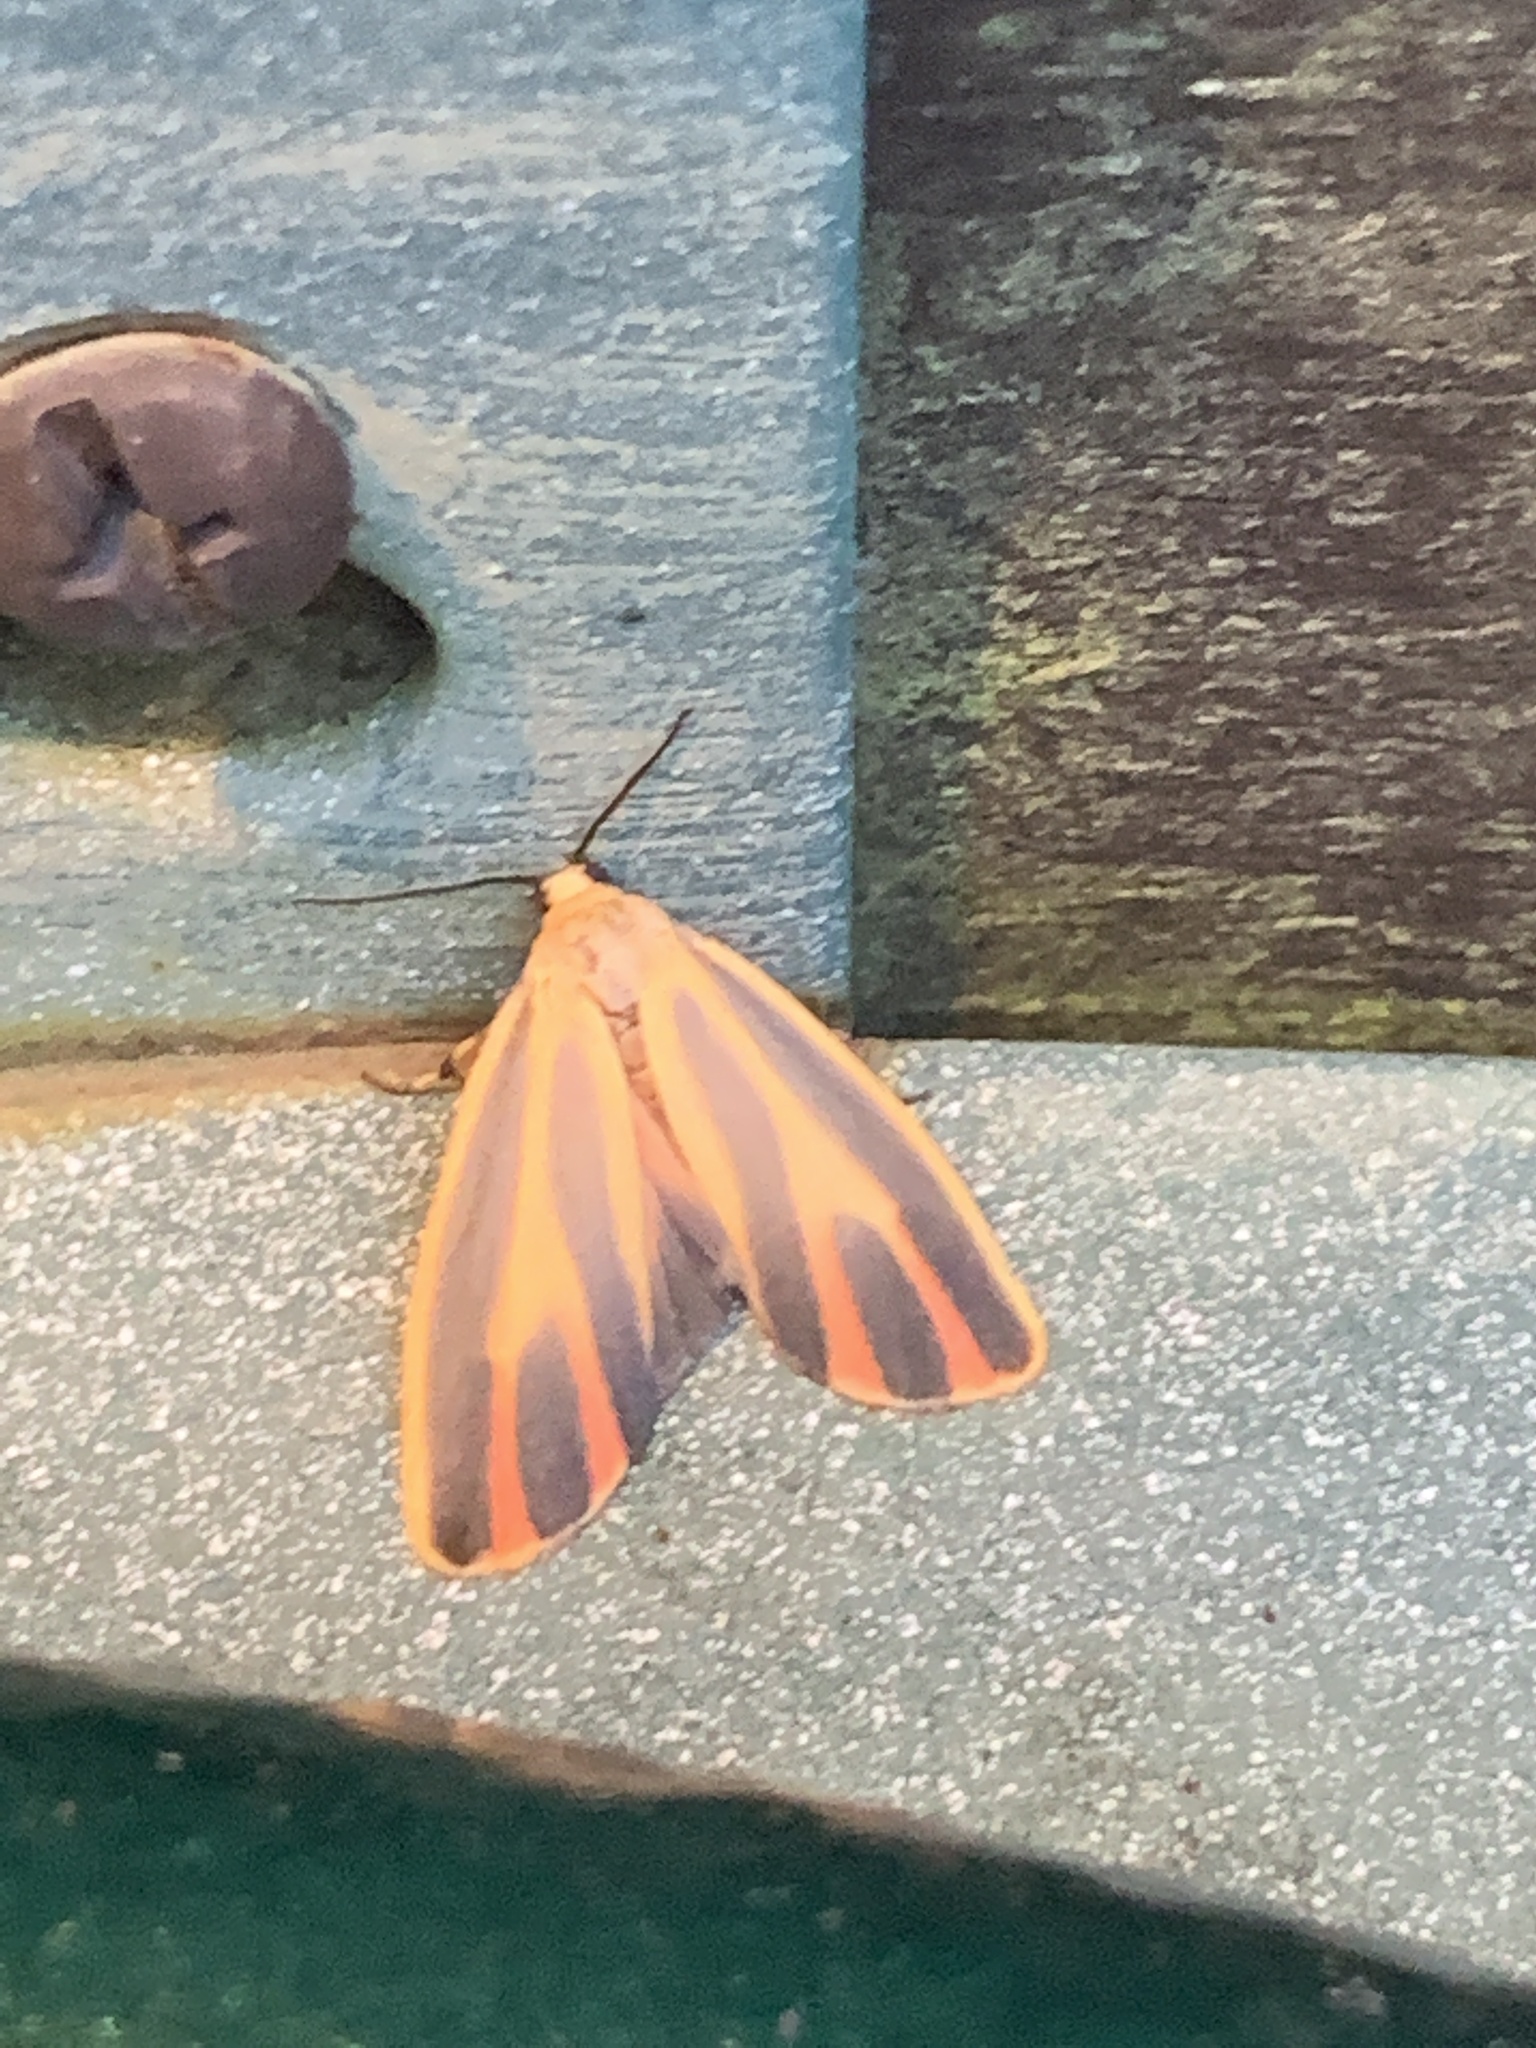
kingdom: Animalia
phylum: Arthropoda
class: Insecta
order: Lepidoptera
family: Erebidae
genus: Hypoprepia
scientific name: Hypoprepia fucosa
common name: Painted lichen moth
